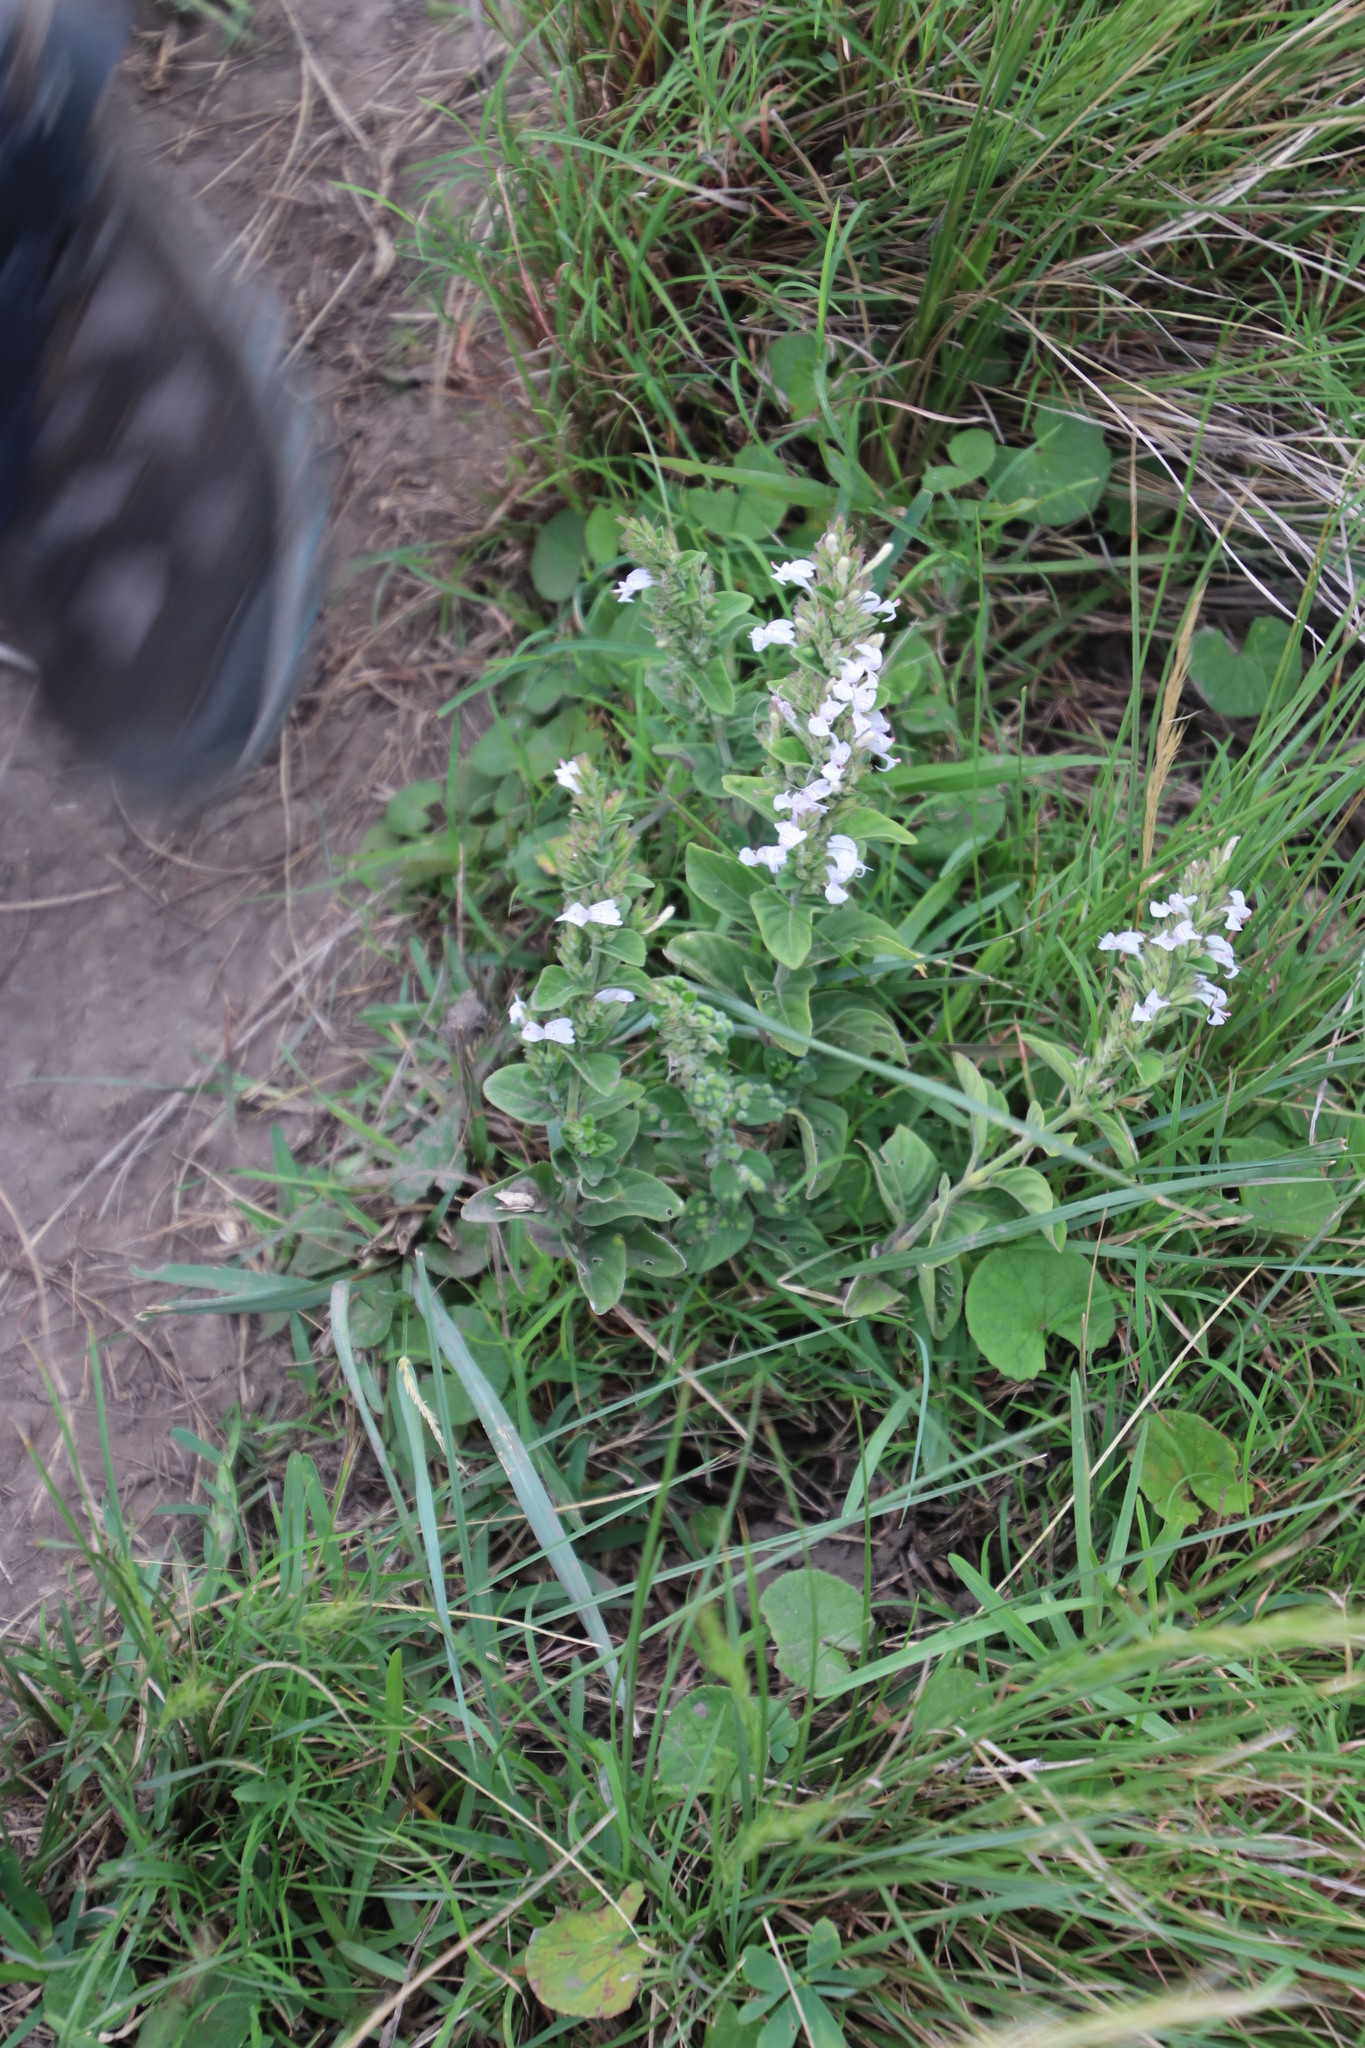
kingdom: Plantae
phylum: Tracheophyta
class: Magnoliopsida
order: Lamiales
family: Acanthaceae
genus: Hypoestes
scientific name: Hypoestes aristata
